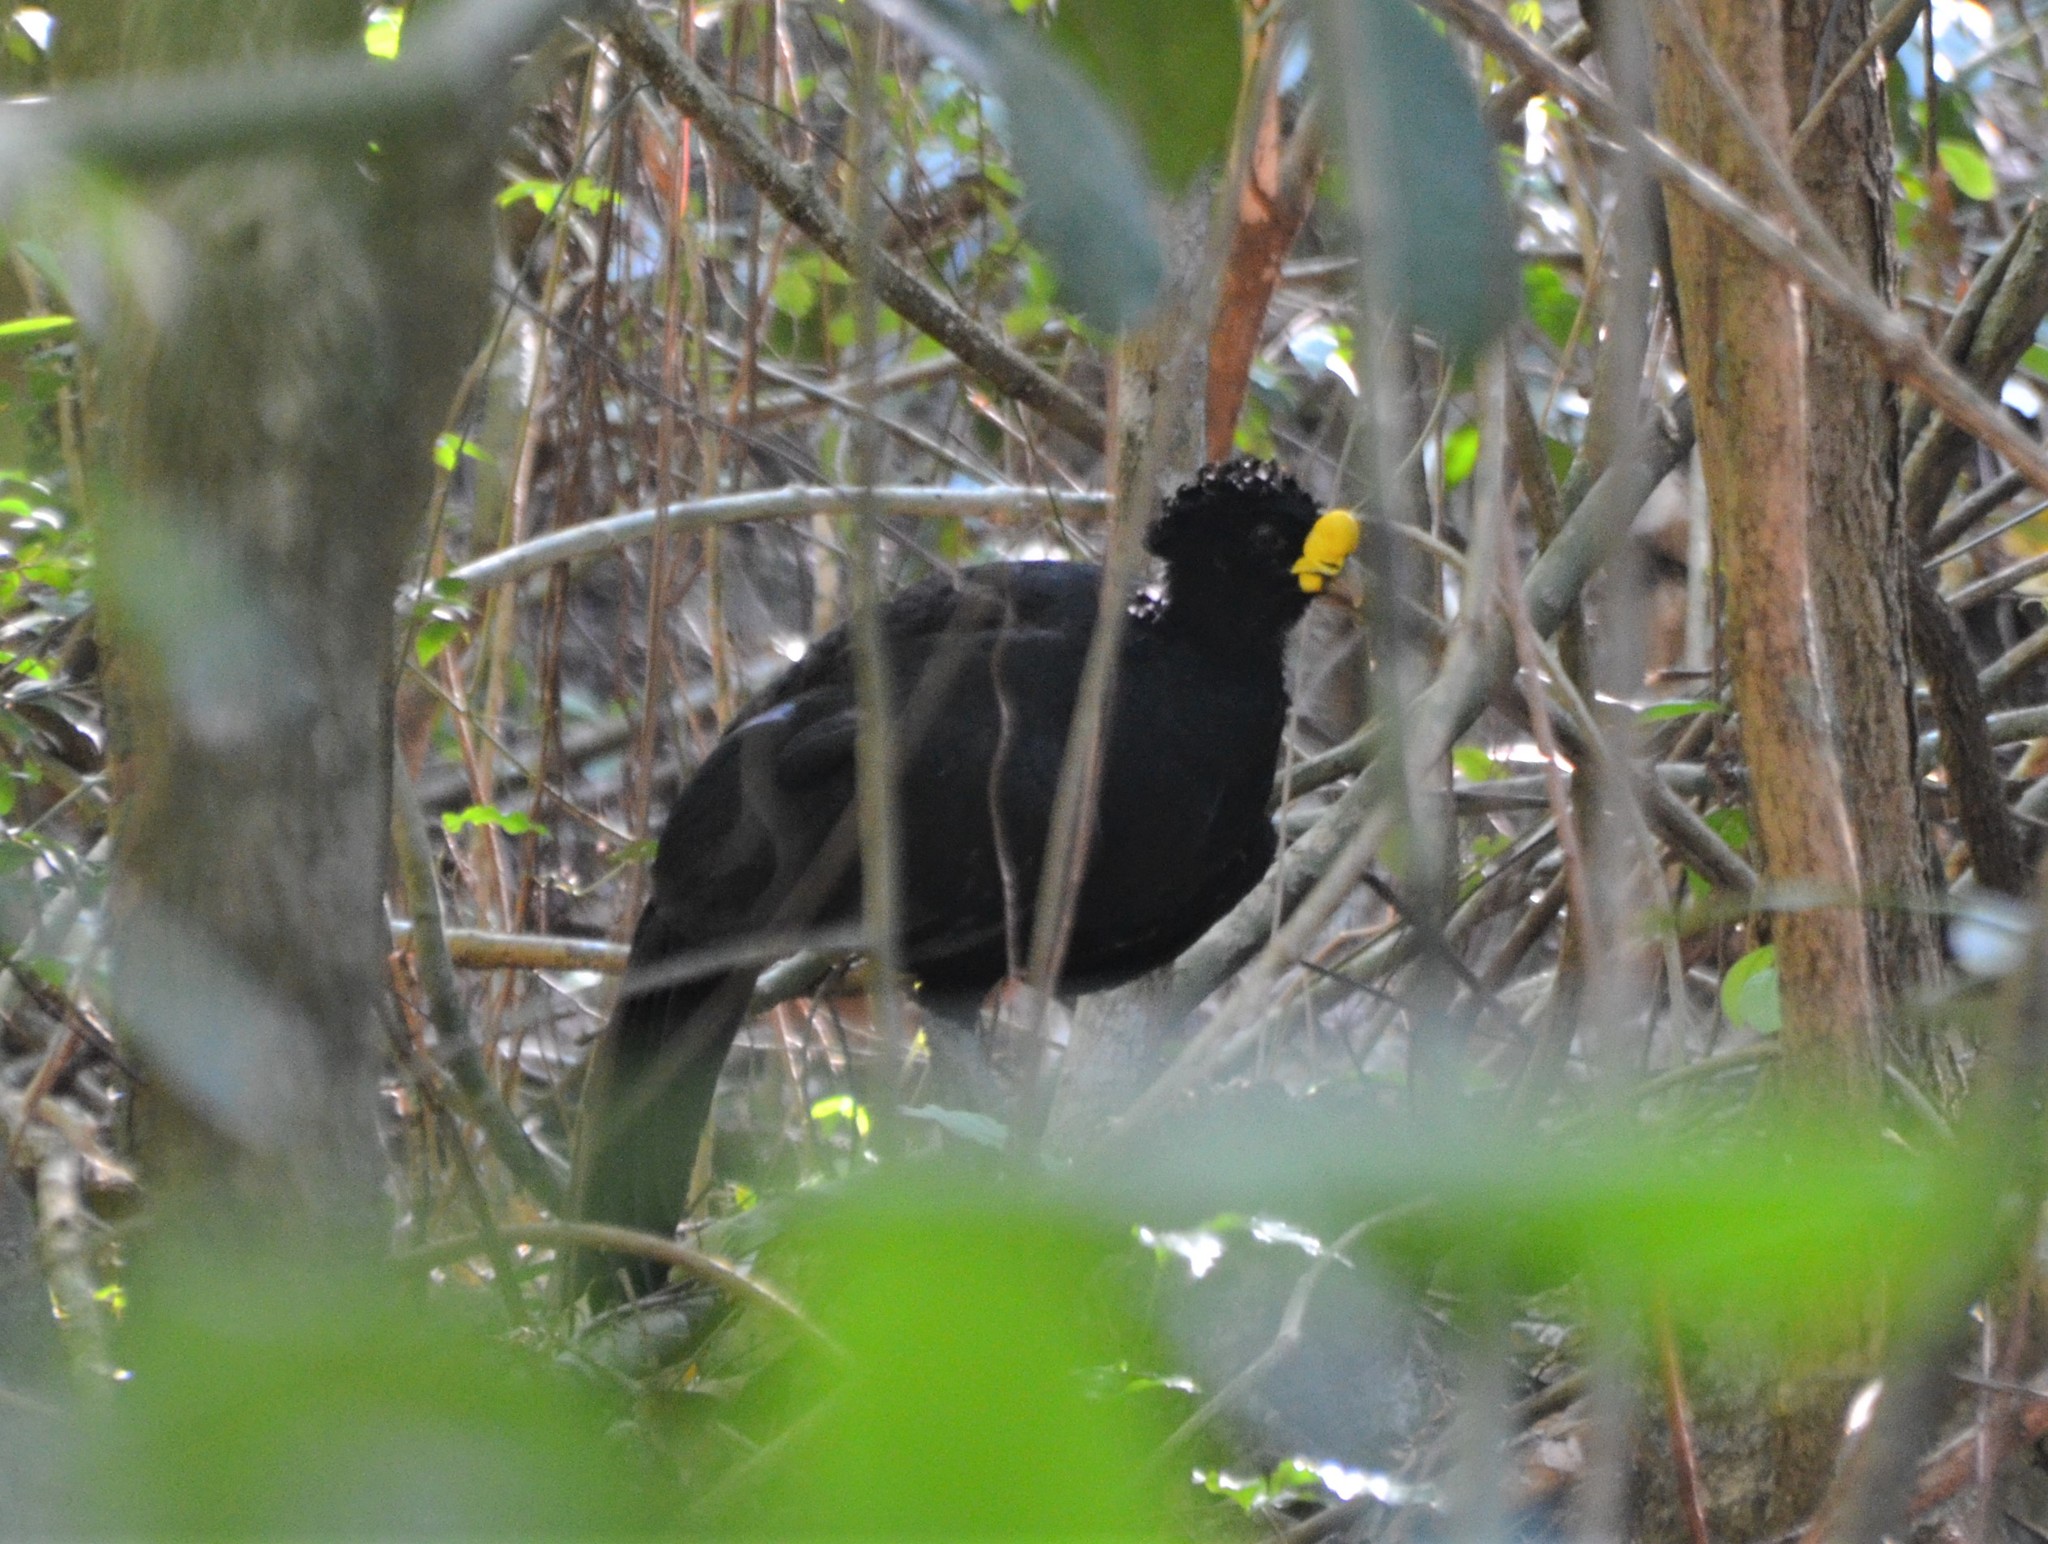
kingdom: Animalia
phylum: Chordata
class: Aves
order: Galliformes
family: Cracidae
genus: Crax
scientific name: Crax rubra
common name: Great curassow
